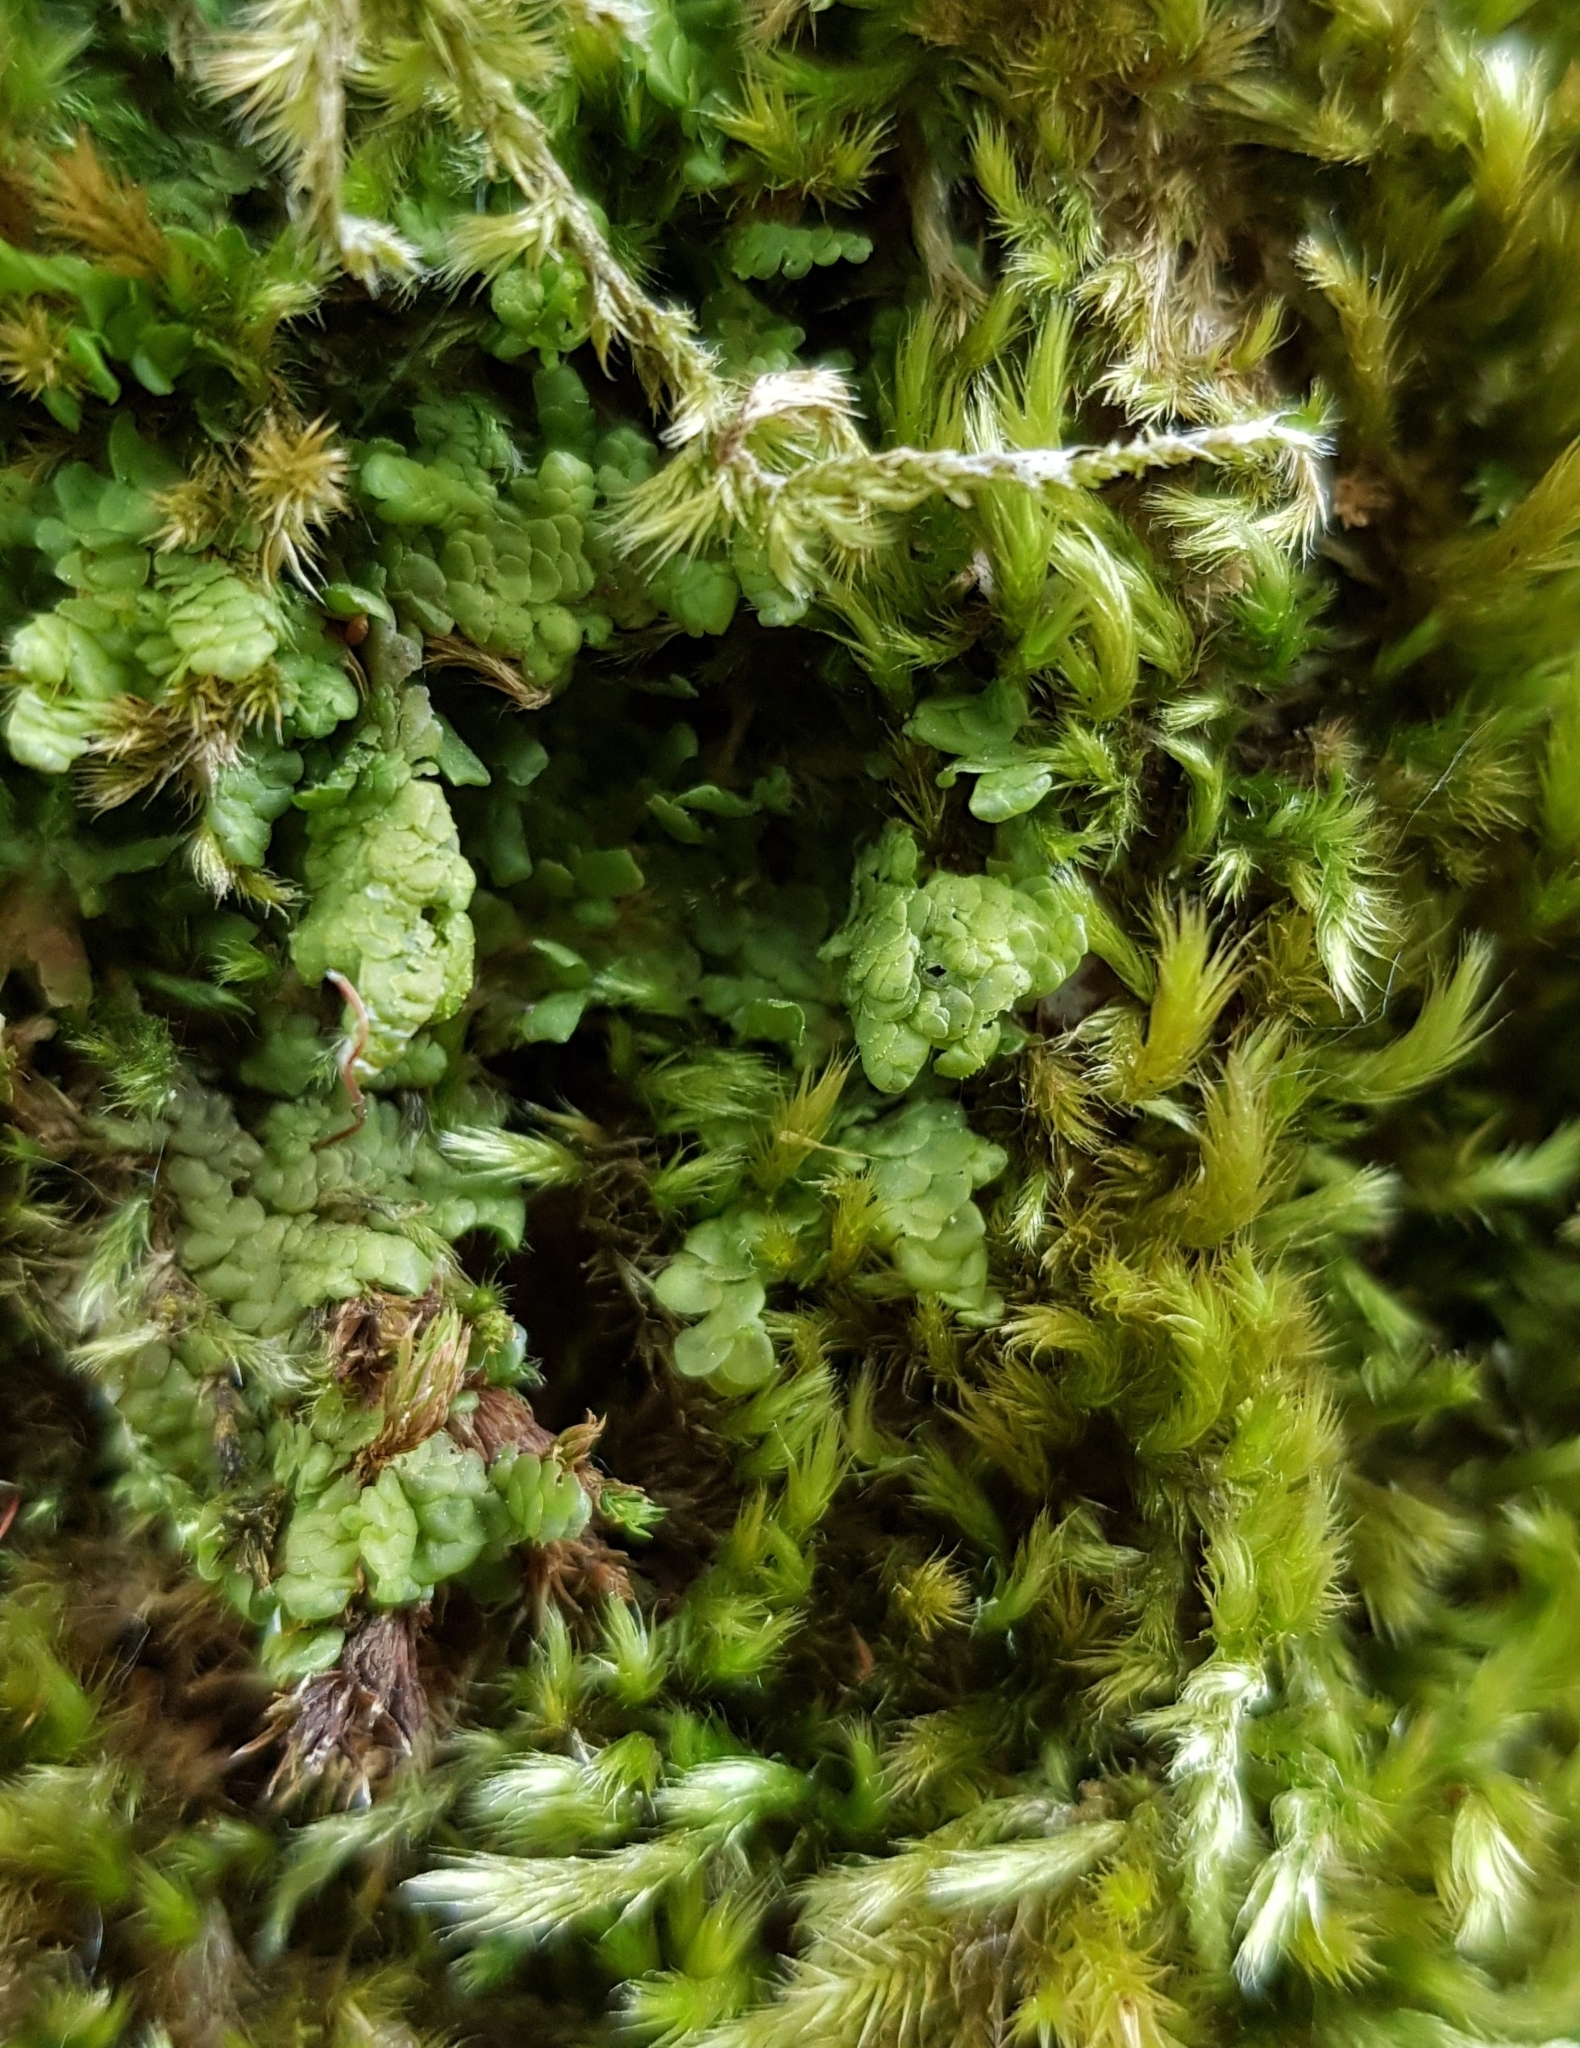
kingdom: Plantae
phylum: Marchantiophyta
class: Jungermanniopsida
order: Porellales
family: Radulaceae
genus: Radula
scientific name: Radula complanata
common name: Flat-leaved scalewort
